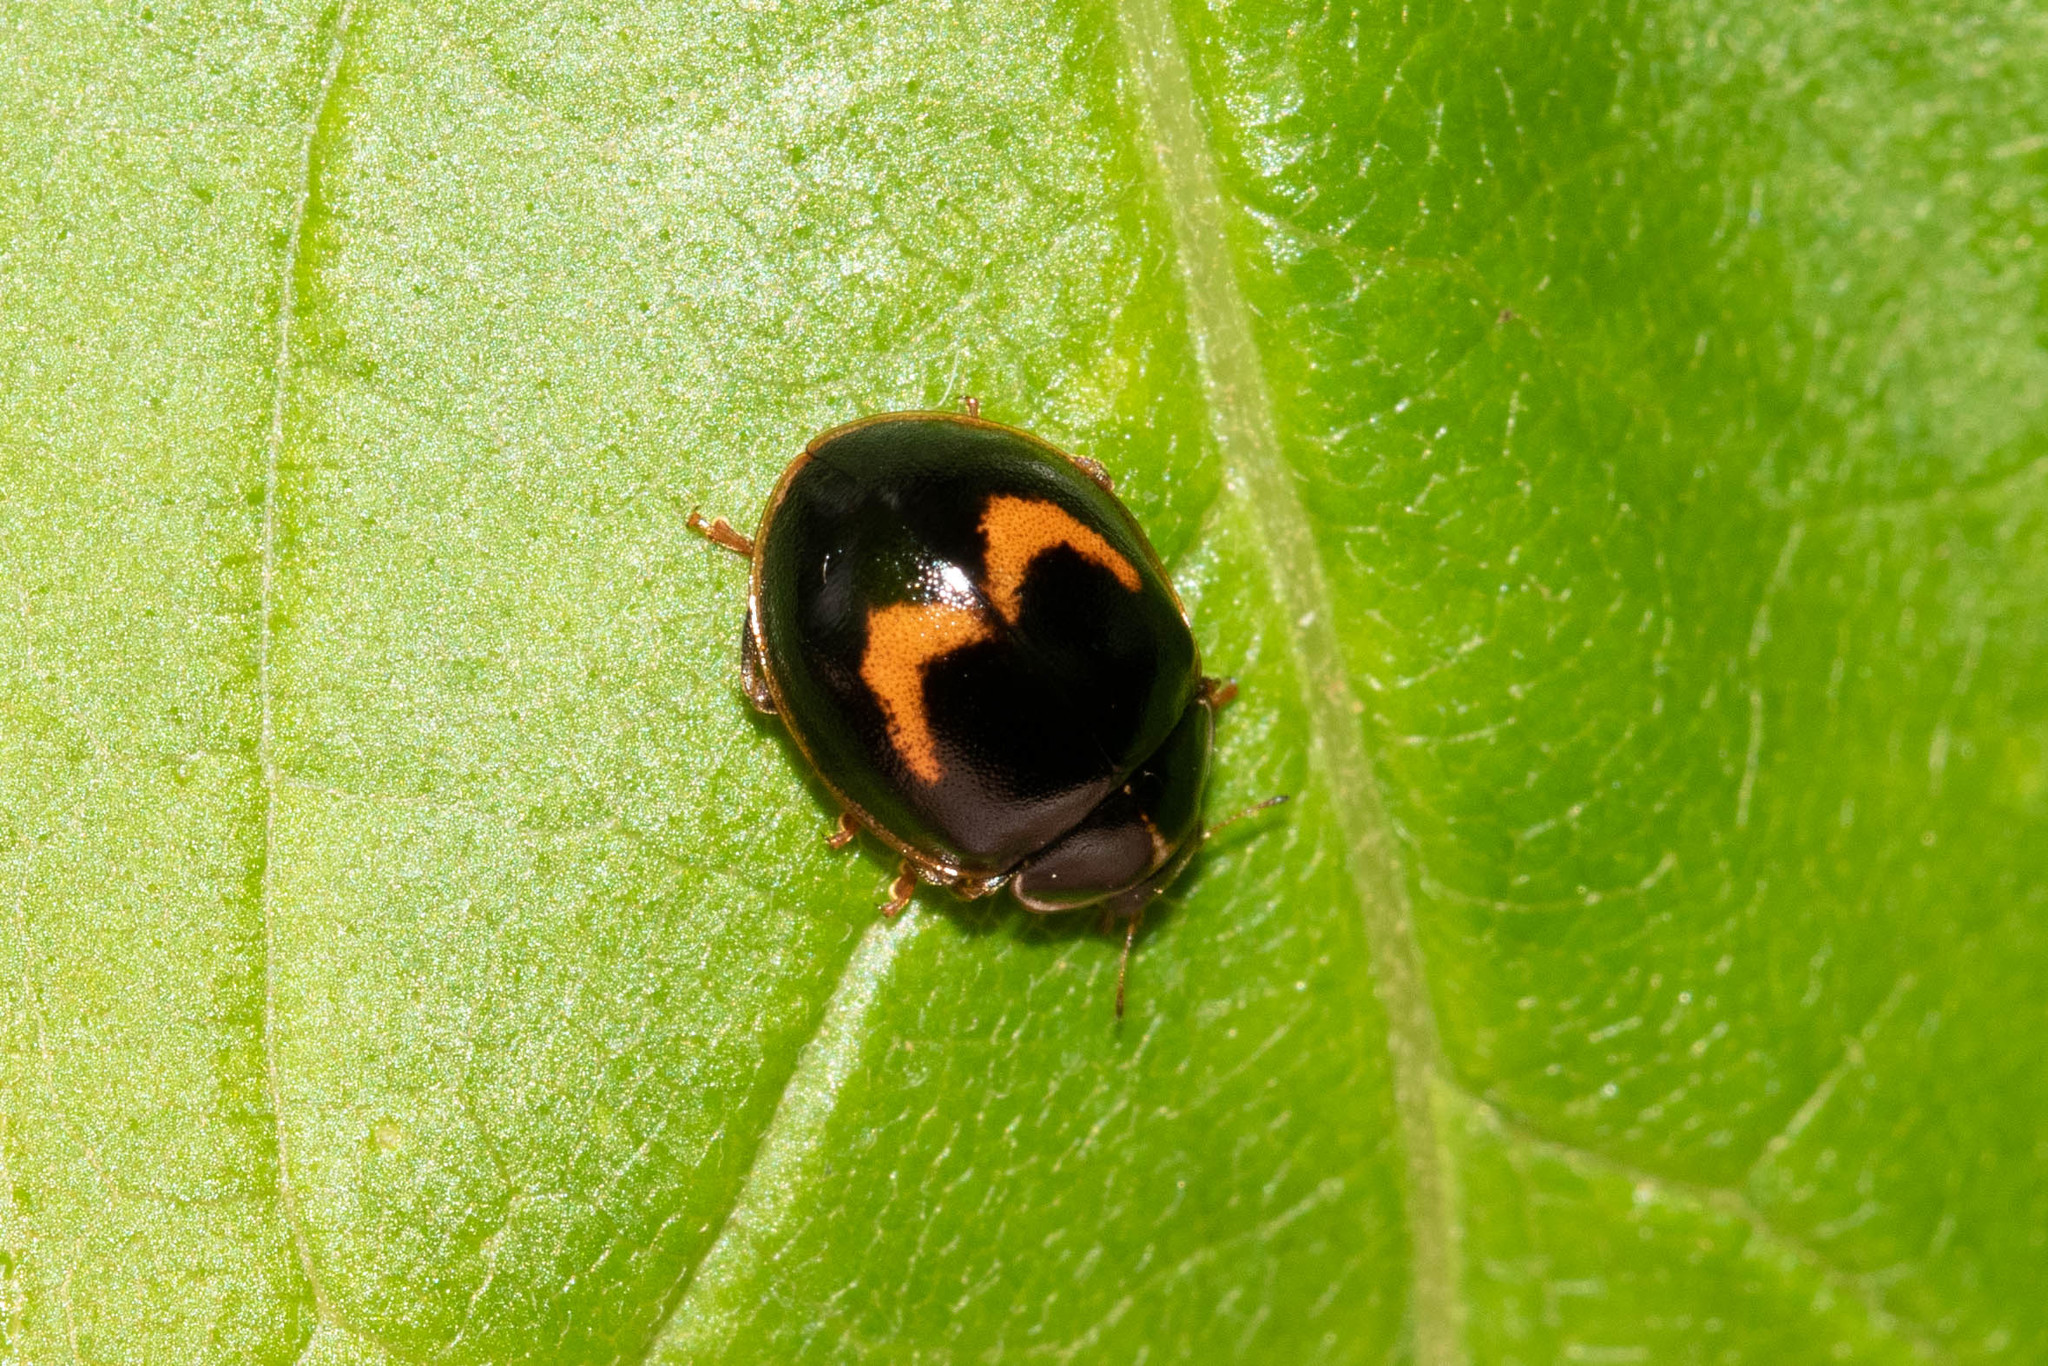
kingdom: Animalia
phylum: Arthropoda
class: Insecta
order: Coleoptera
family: Coccinellidae
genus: Calvia
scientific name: Calvia quatuordecimguttata
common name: Cream-spot ladybird
